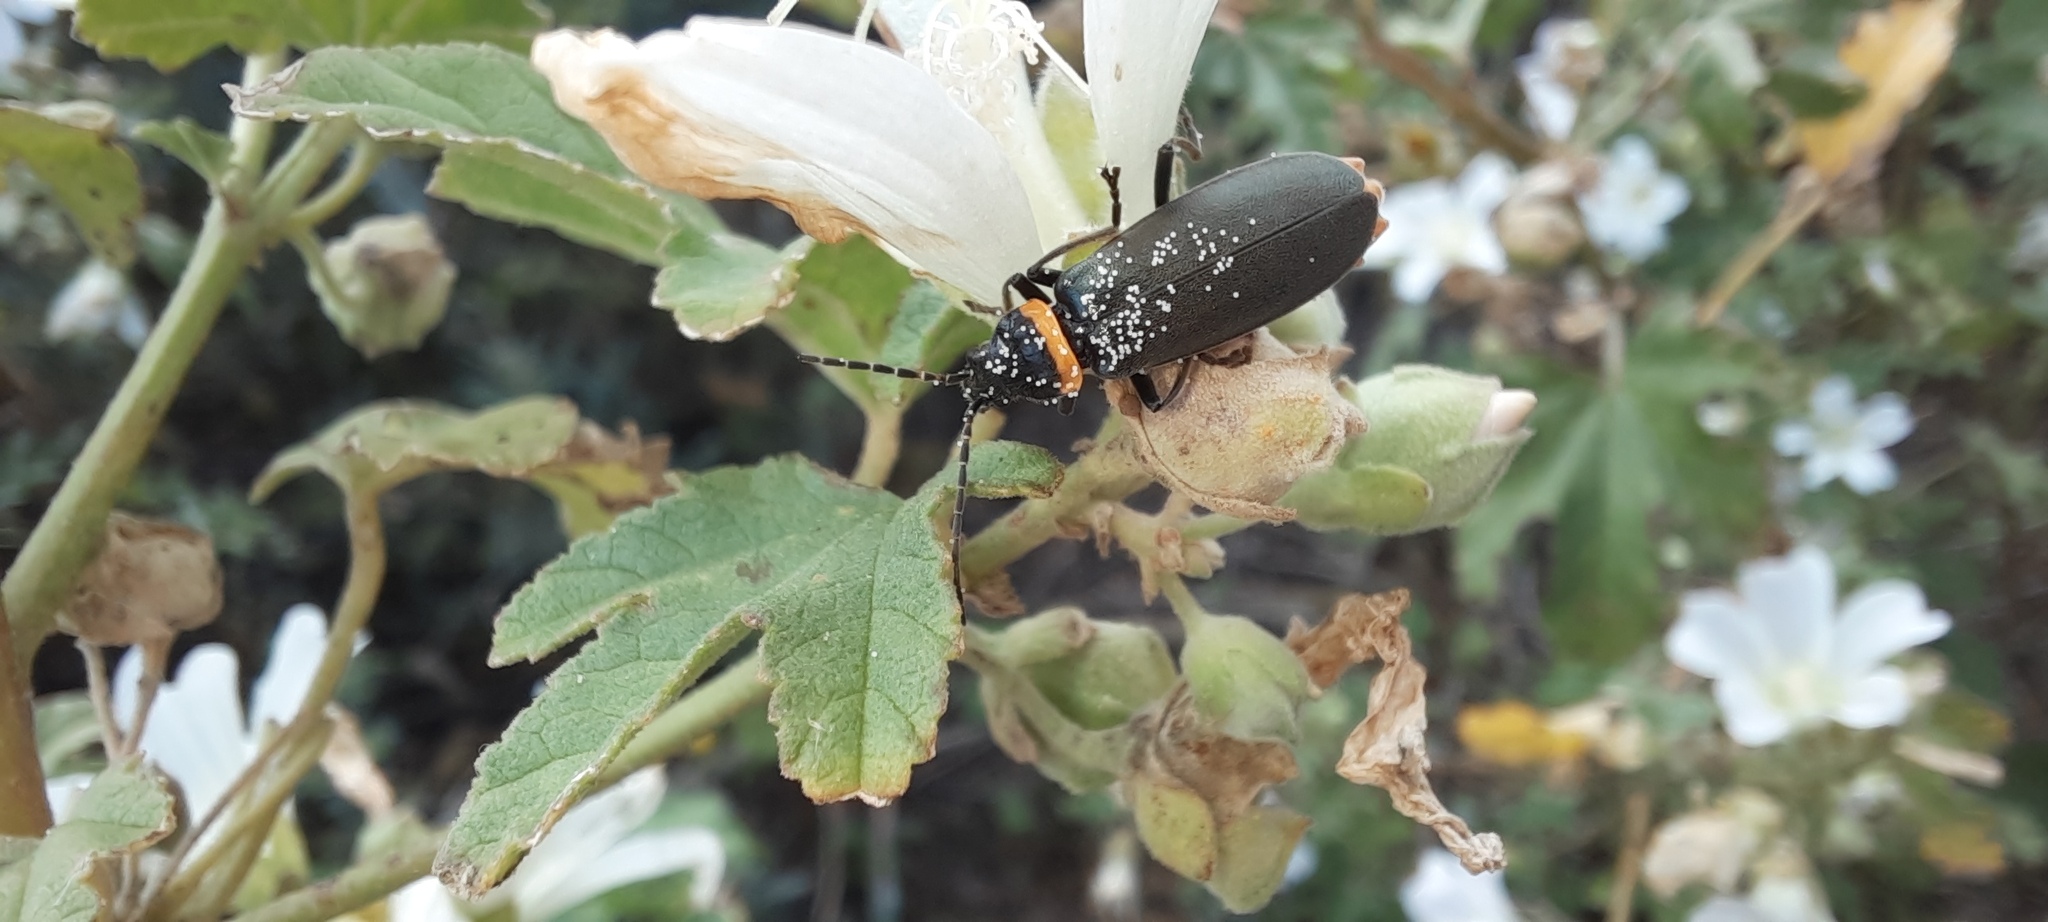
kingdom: Animalia
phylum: Arthropoda
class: Insecta
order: Coleoptera
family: Cantharidae
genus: Chauliognathus
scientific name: Chauliognathus
